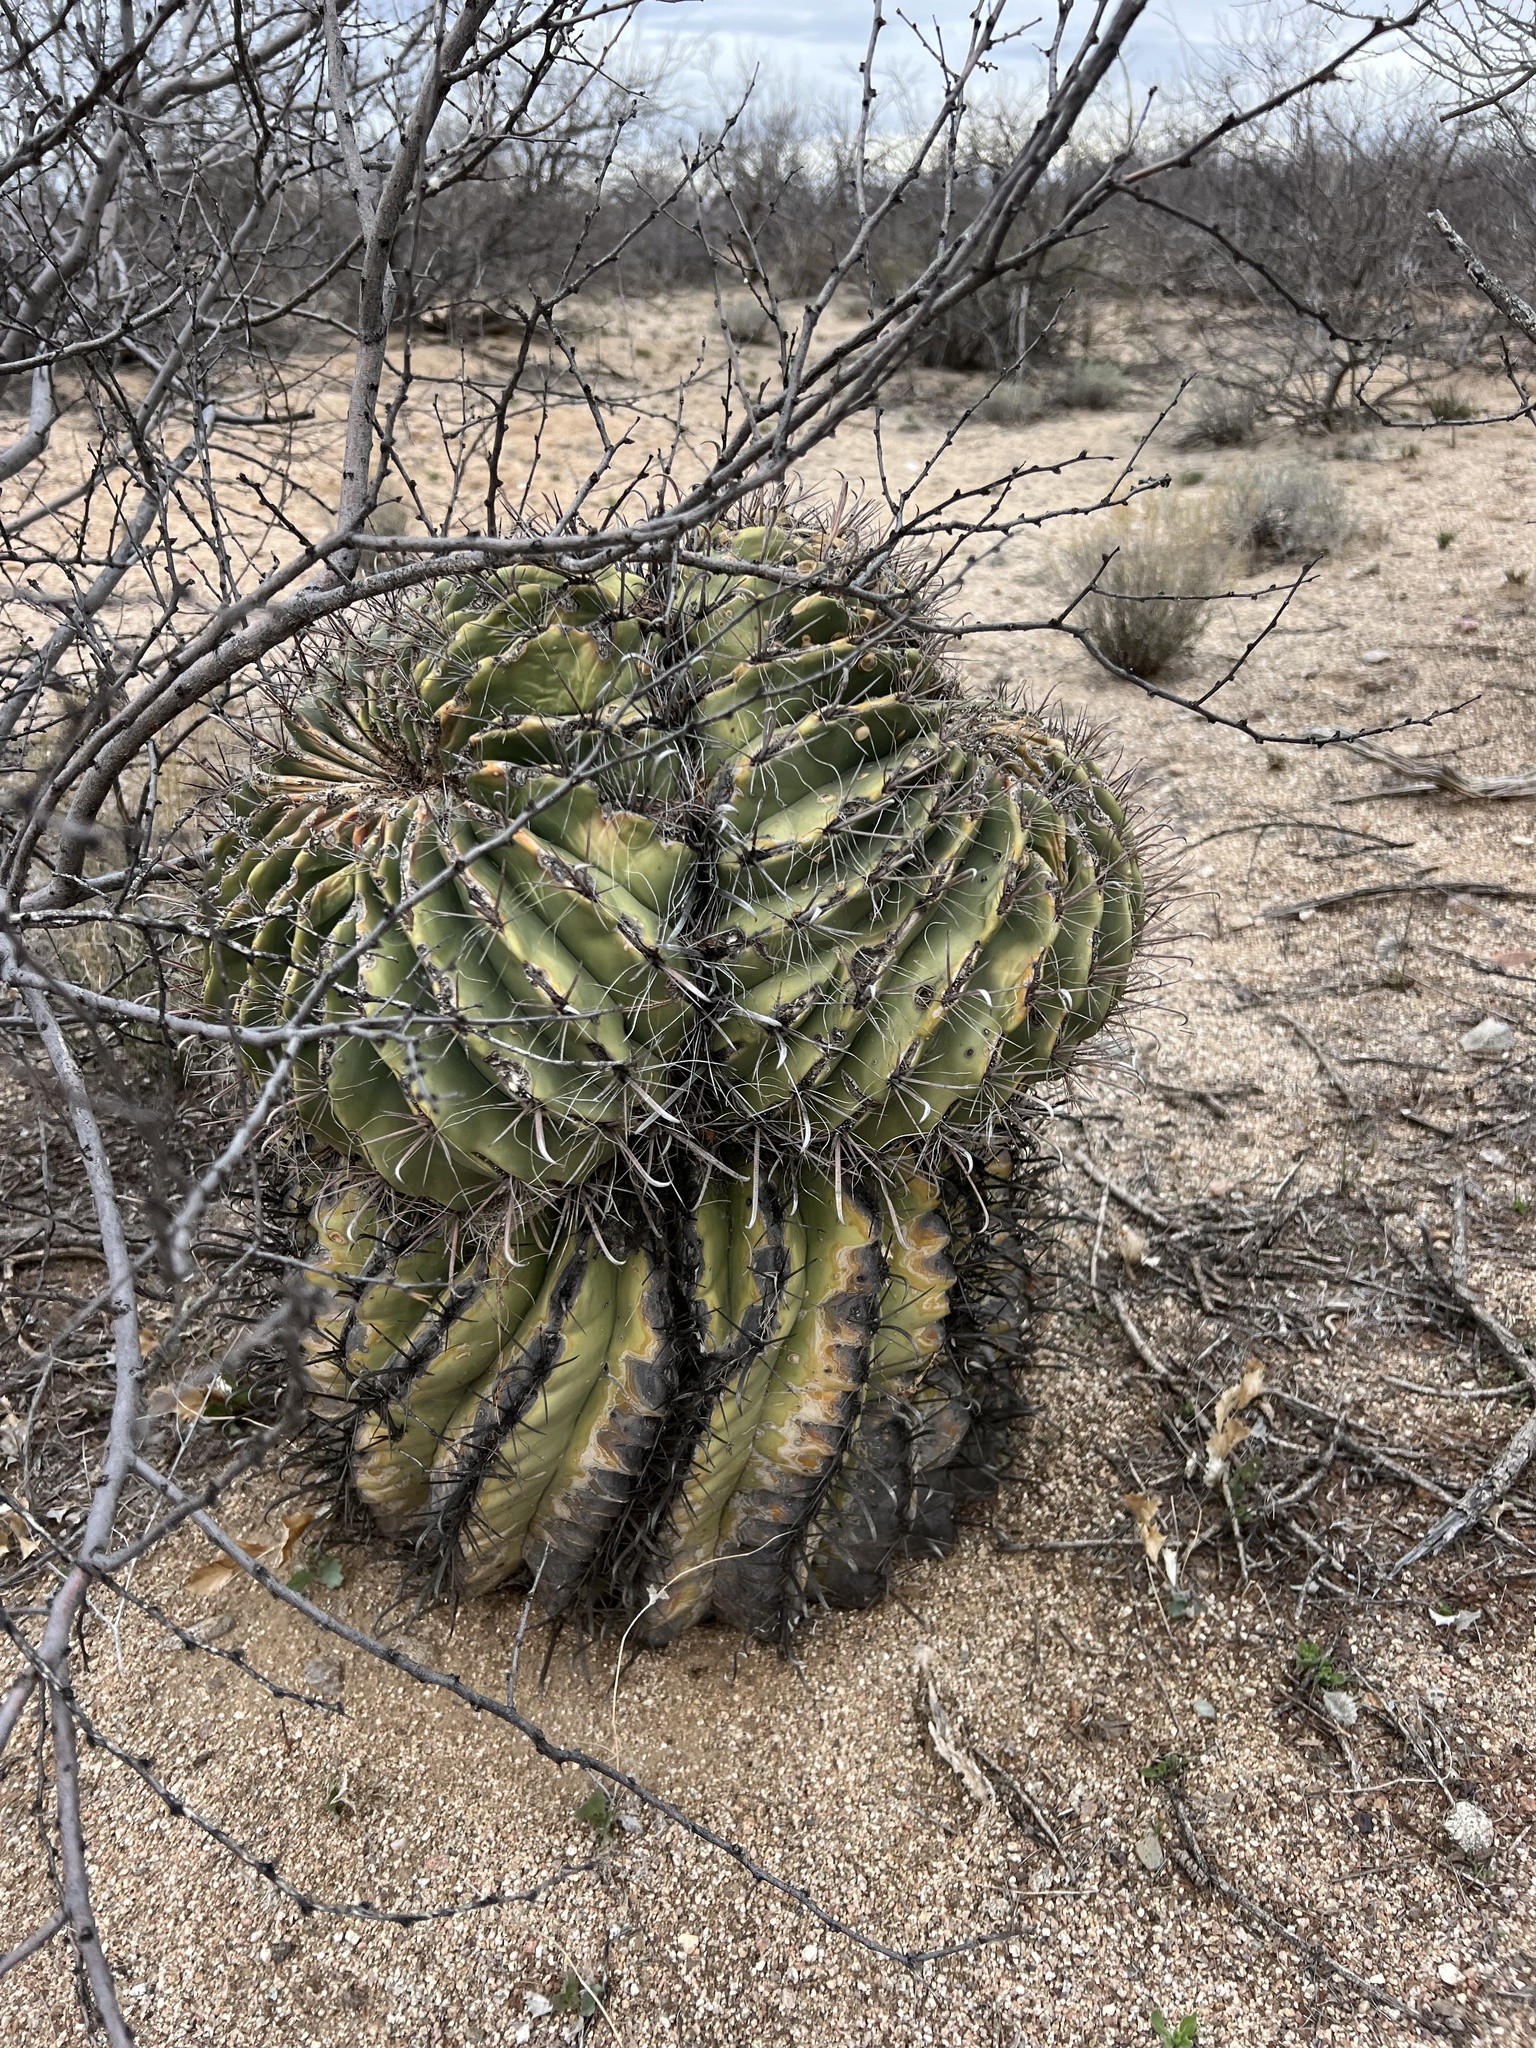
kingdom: Plantae
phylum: Tracheophyta
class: Magnoliopsida
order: Caryophyllales
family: Cactaceae
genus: Ferocactus
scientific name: Ferocactus wislizeni
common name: Candy barrel cactus
